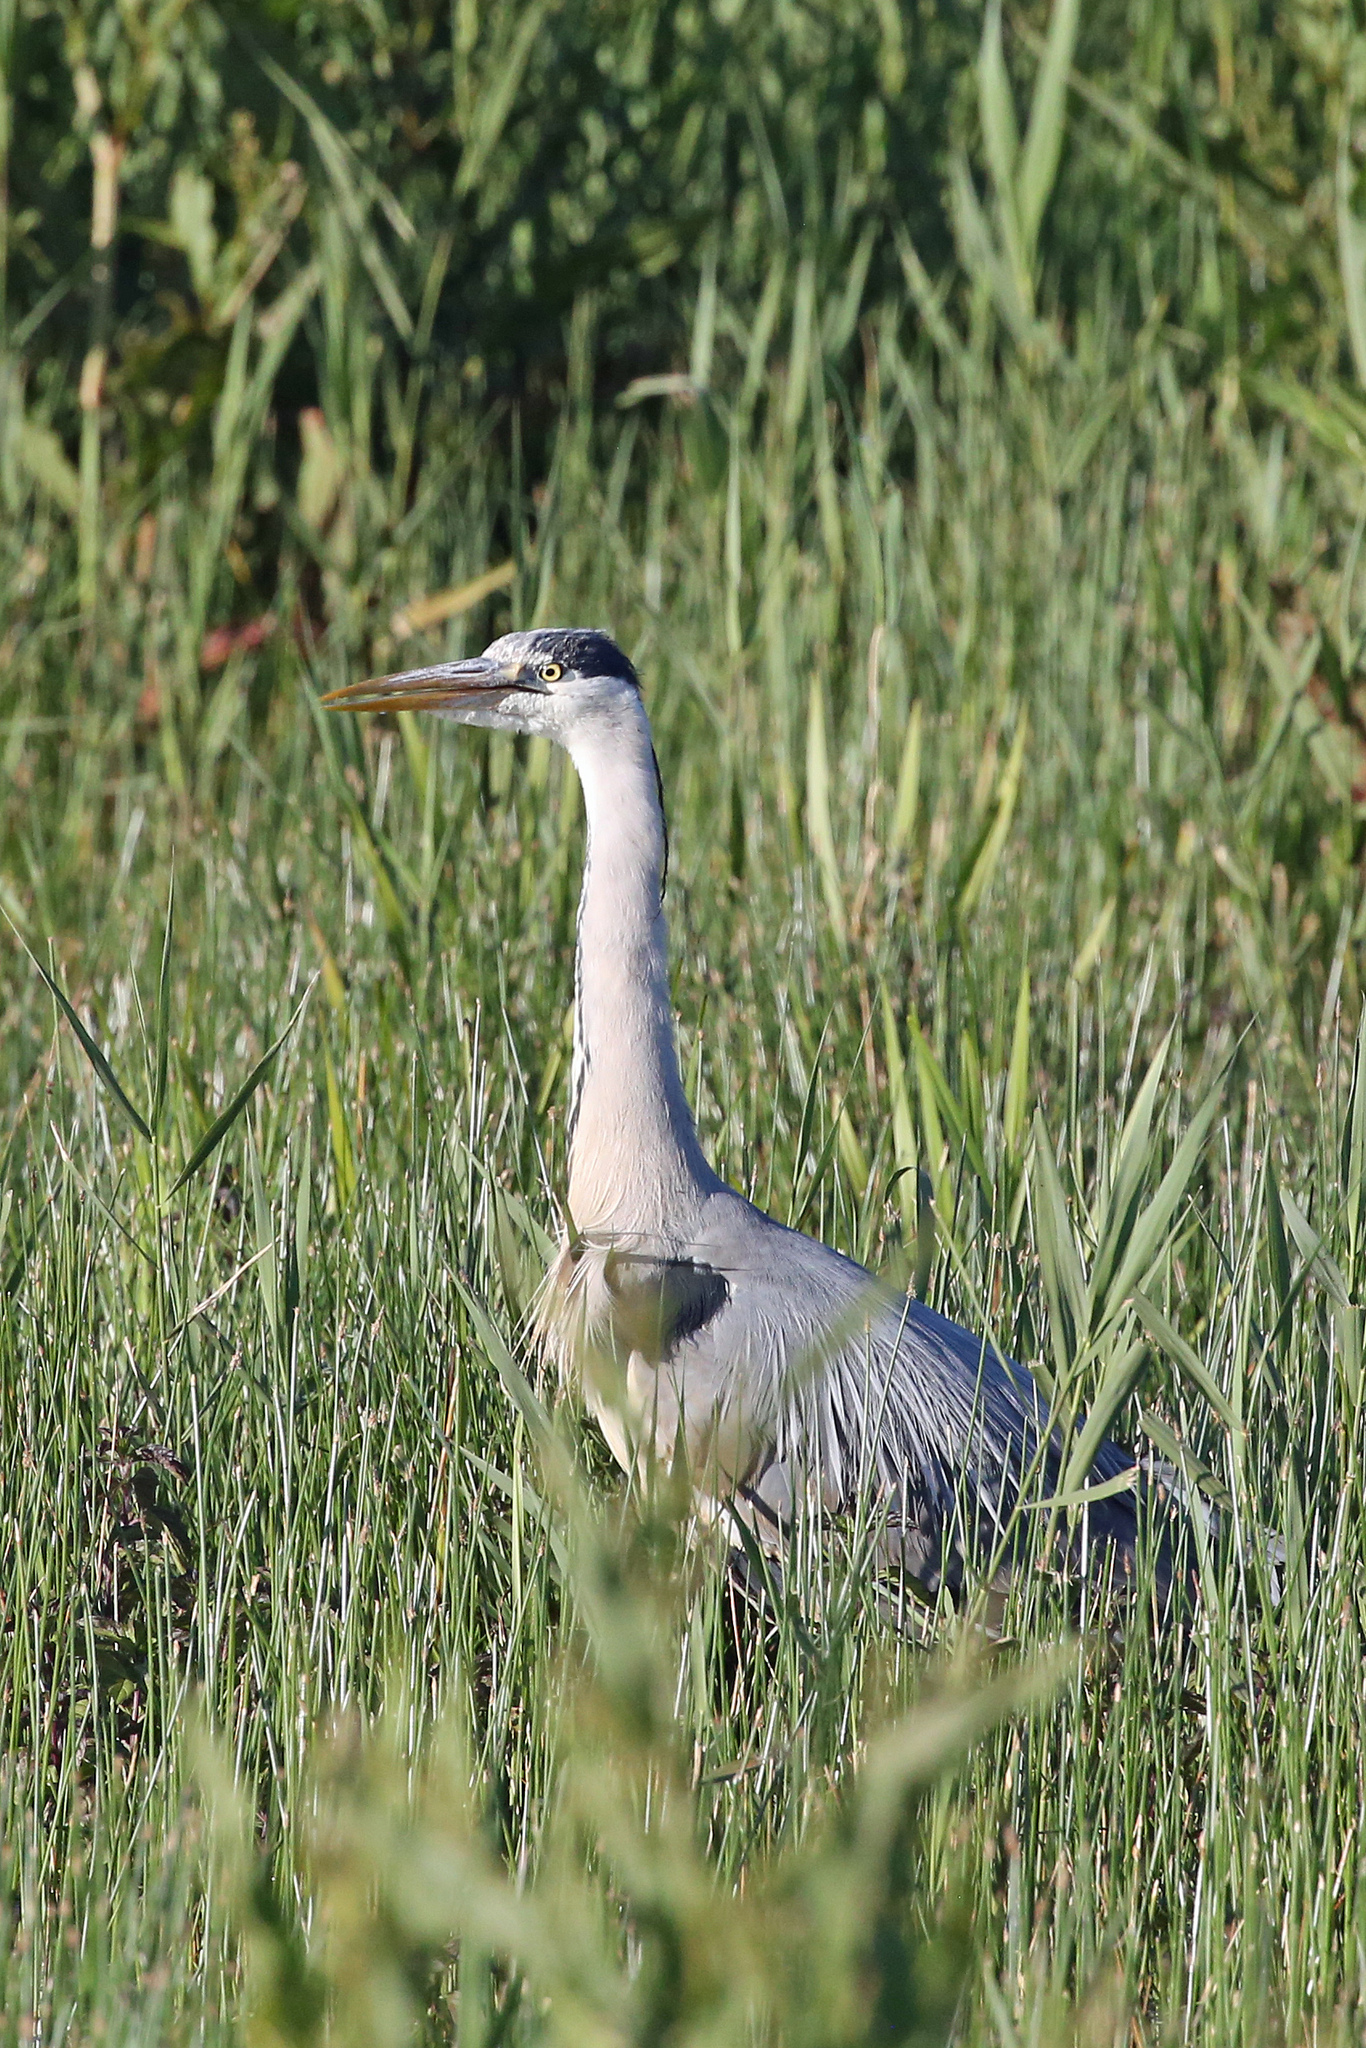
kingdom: Animalia
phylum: Chordata
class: Aves
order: Pelecaniformes
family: Ardeidae
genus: Ardea
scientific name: Ardea cinerea
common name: Grey heron
